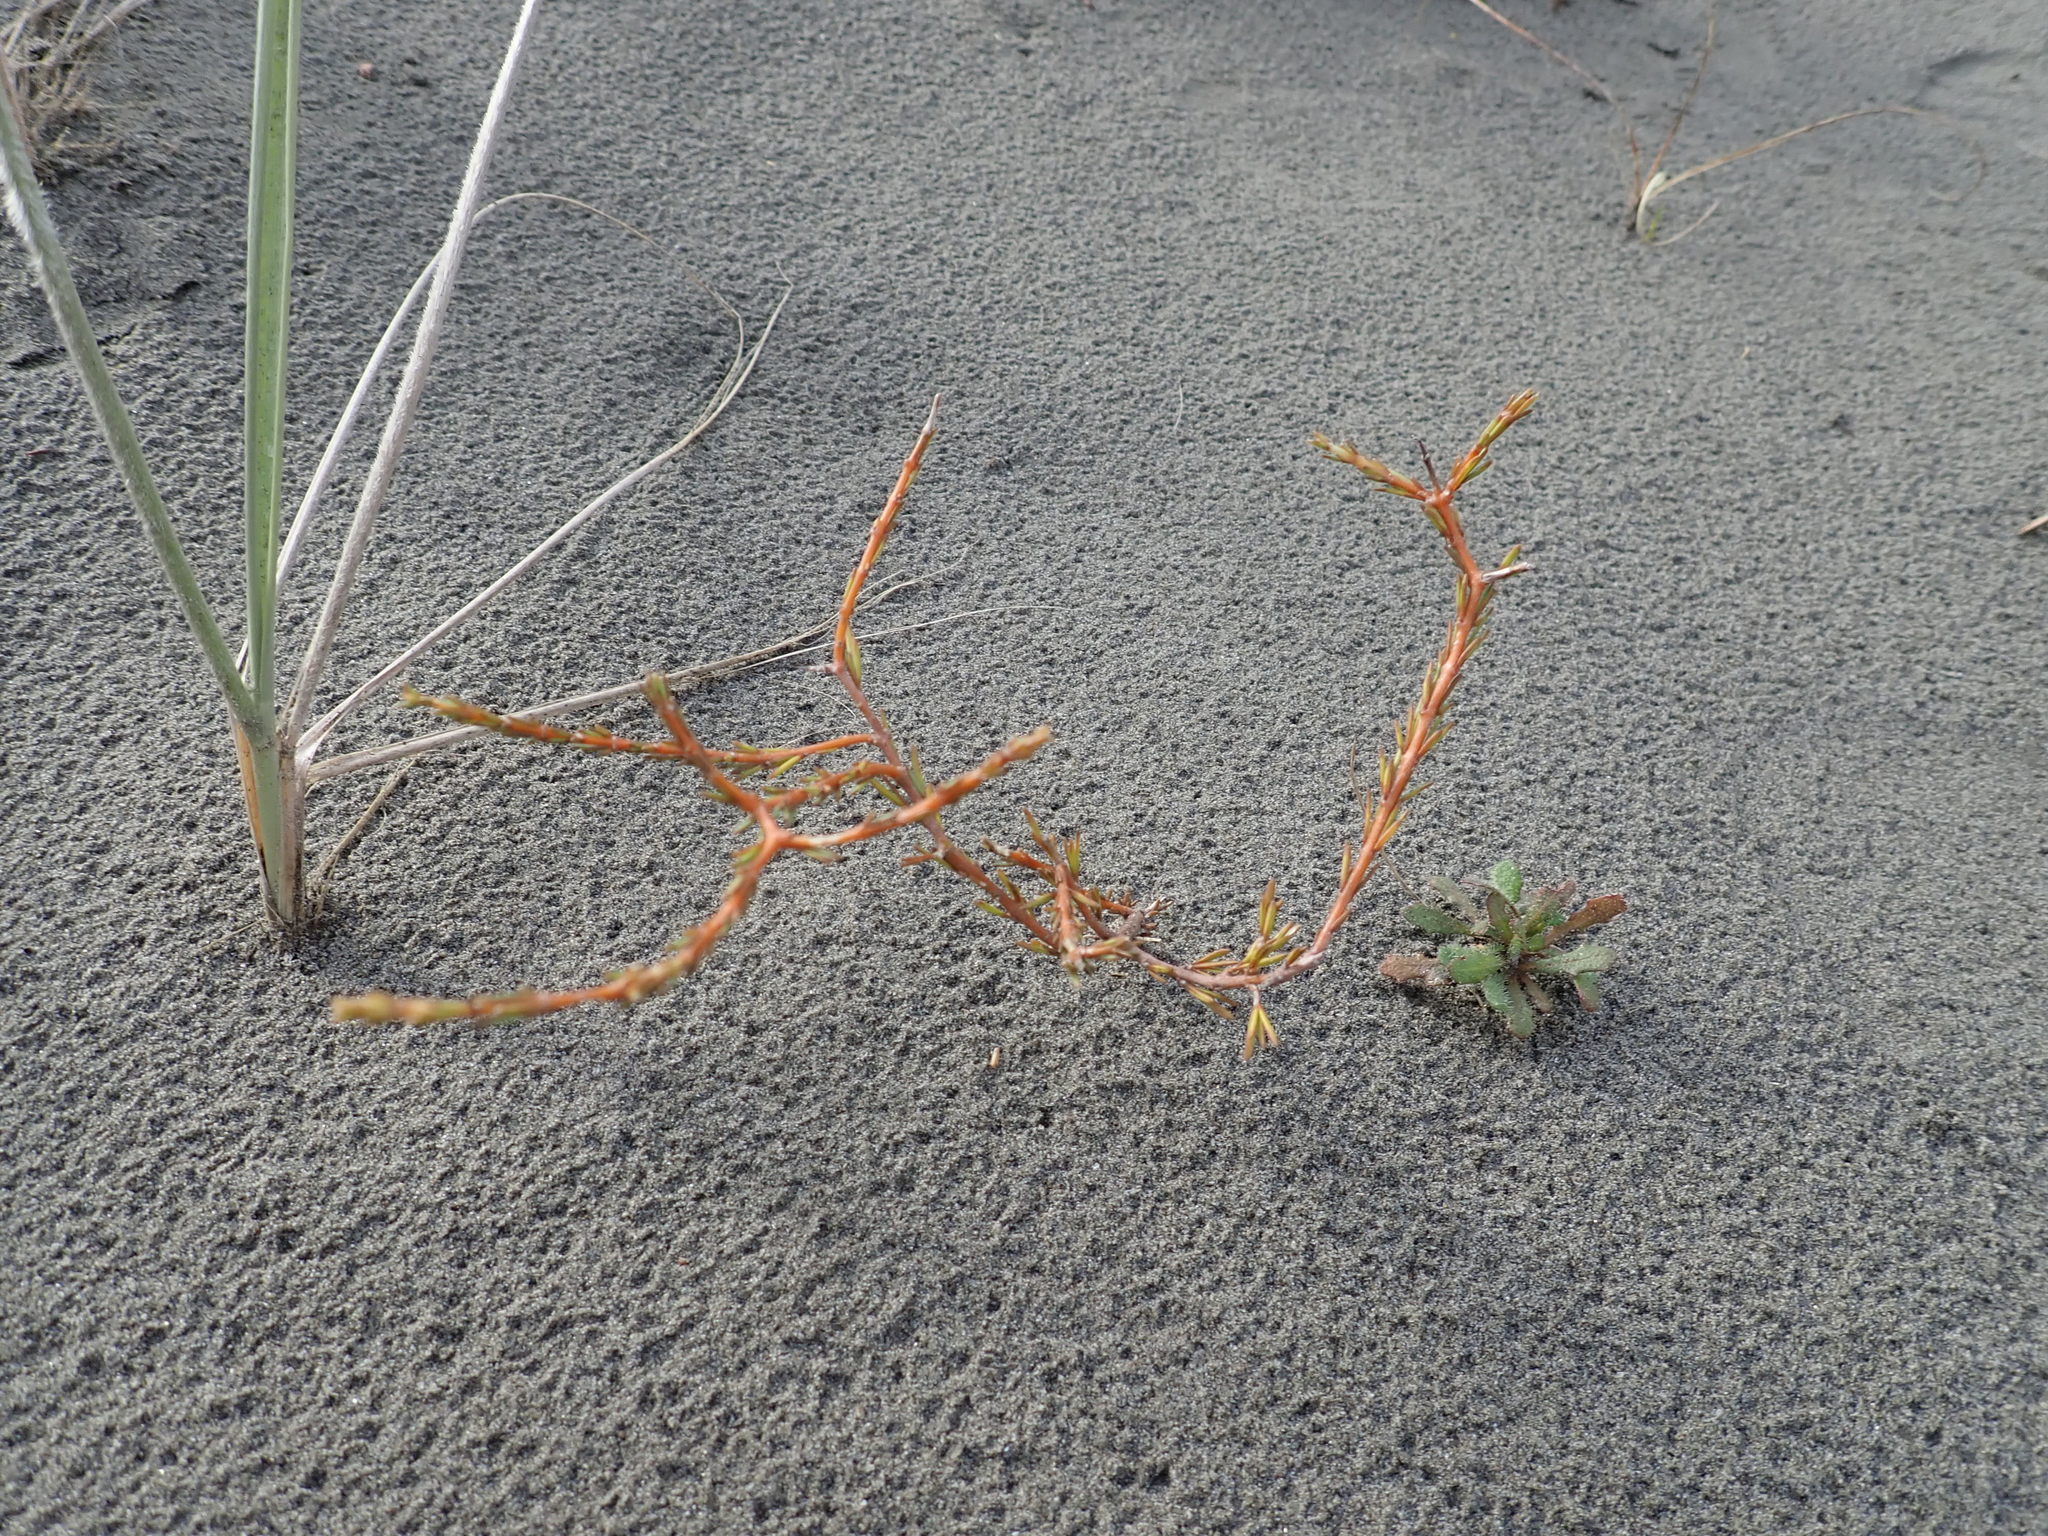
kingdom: Plantae
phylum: Tracheophyta
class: Magnoliopsida
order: Gentianales
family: Rubiaceae
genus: Coprosma
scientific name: Coprosma acerosa
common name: Sand coprosma
